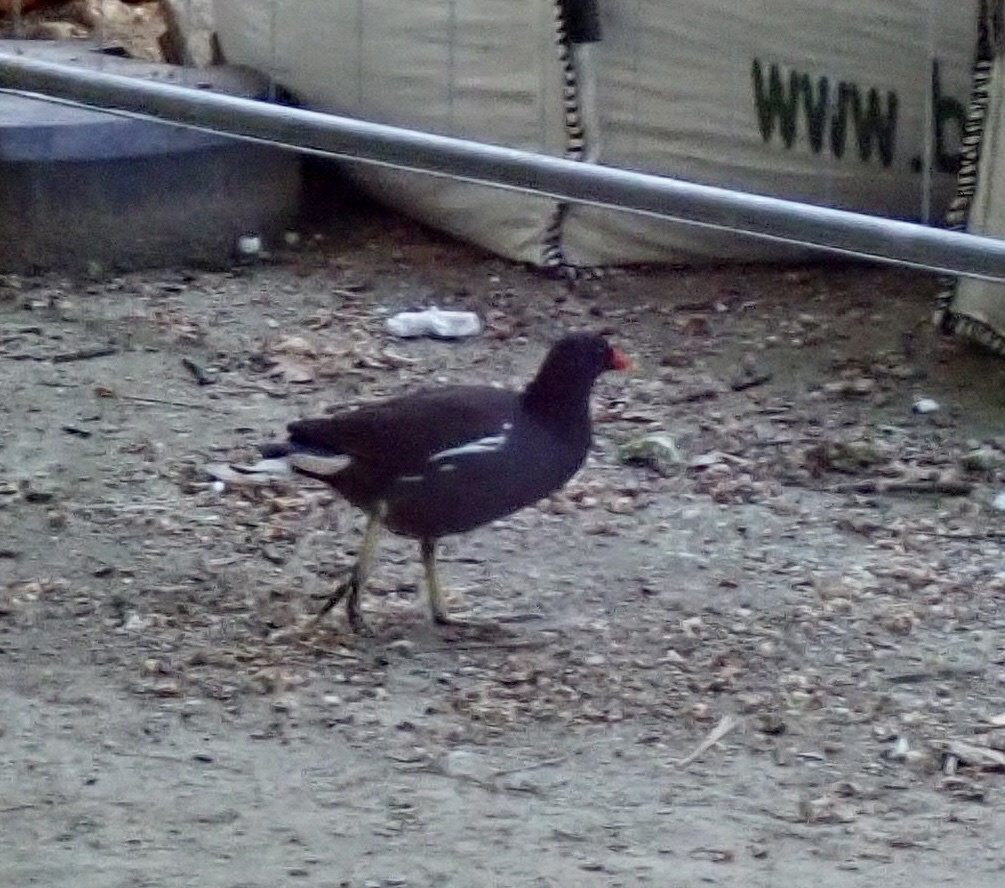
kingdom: Animalia
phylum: Chordata
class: Aves
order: Gruiformes
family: Rallidae
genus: Gallinula
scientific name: Gallinula chloropus
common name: Common moorhen
